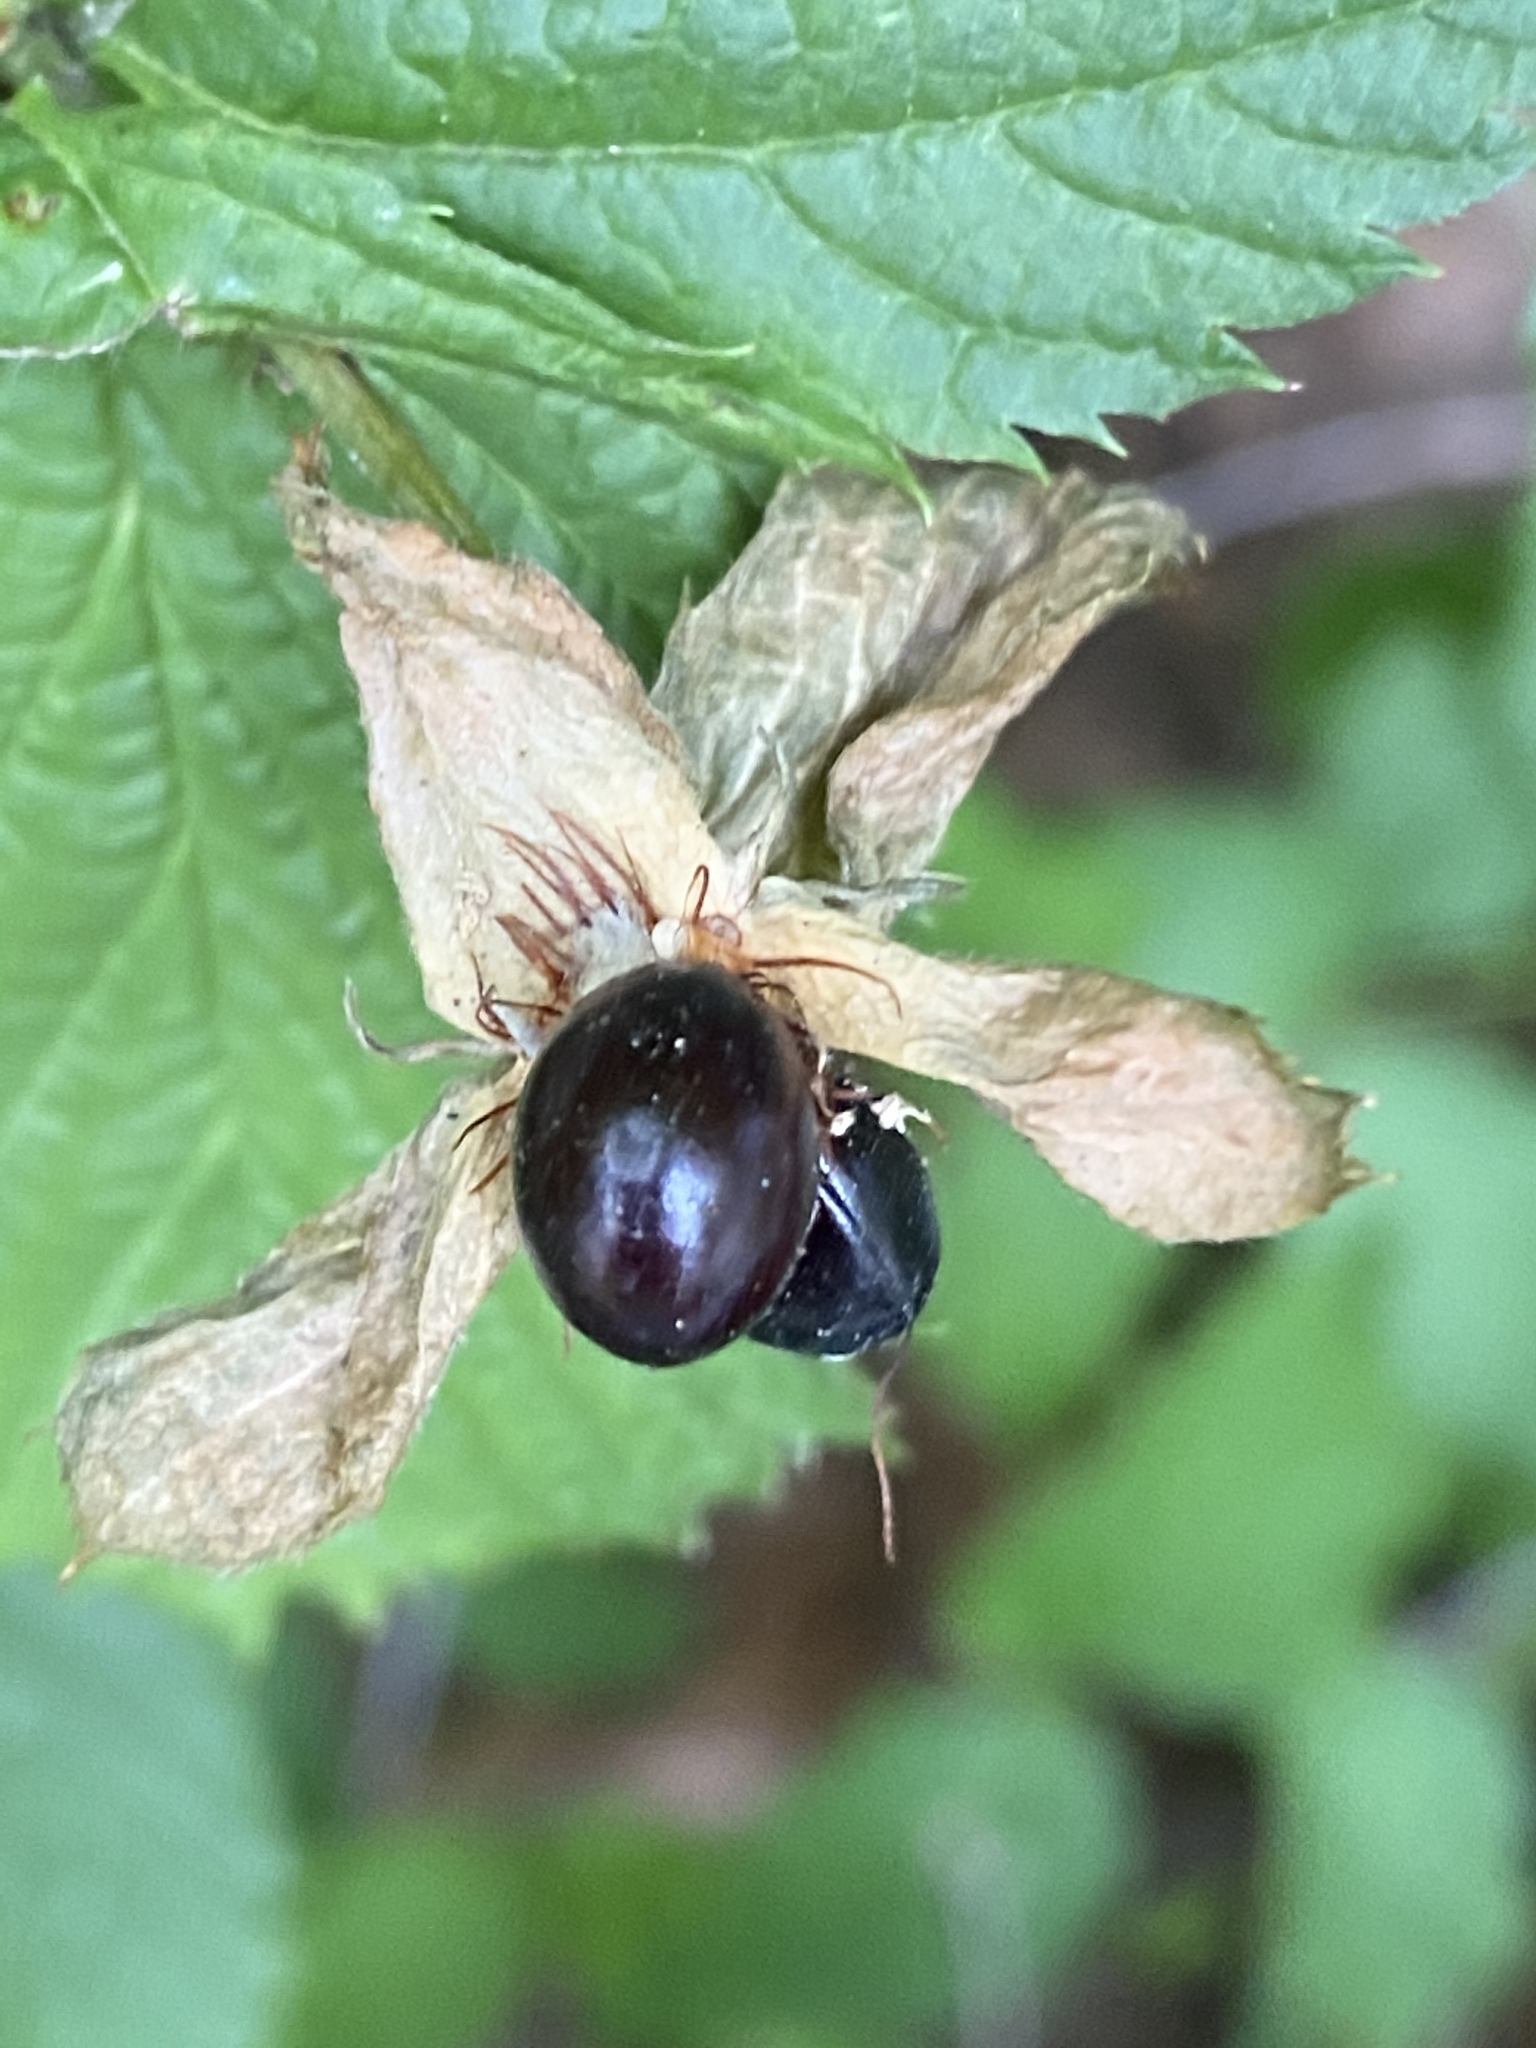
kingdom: Plantae
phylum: Tracheophyta
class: Magnoliopsida
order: Rosales
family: Rosaceae
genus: Rhodotypos
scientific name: Rhodotypos scandens
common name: Jetbead
